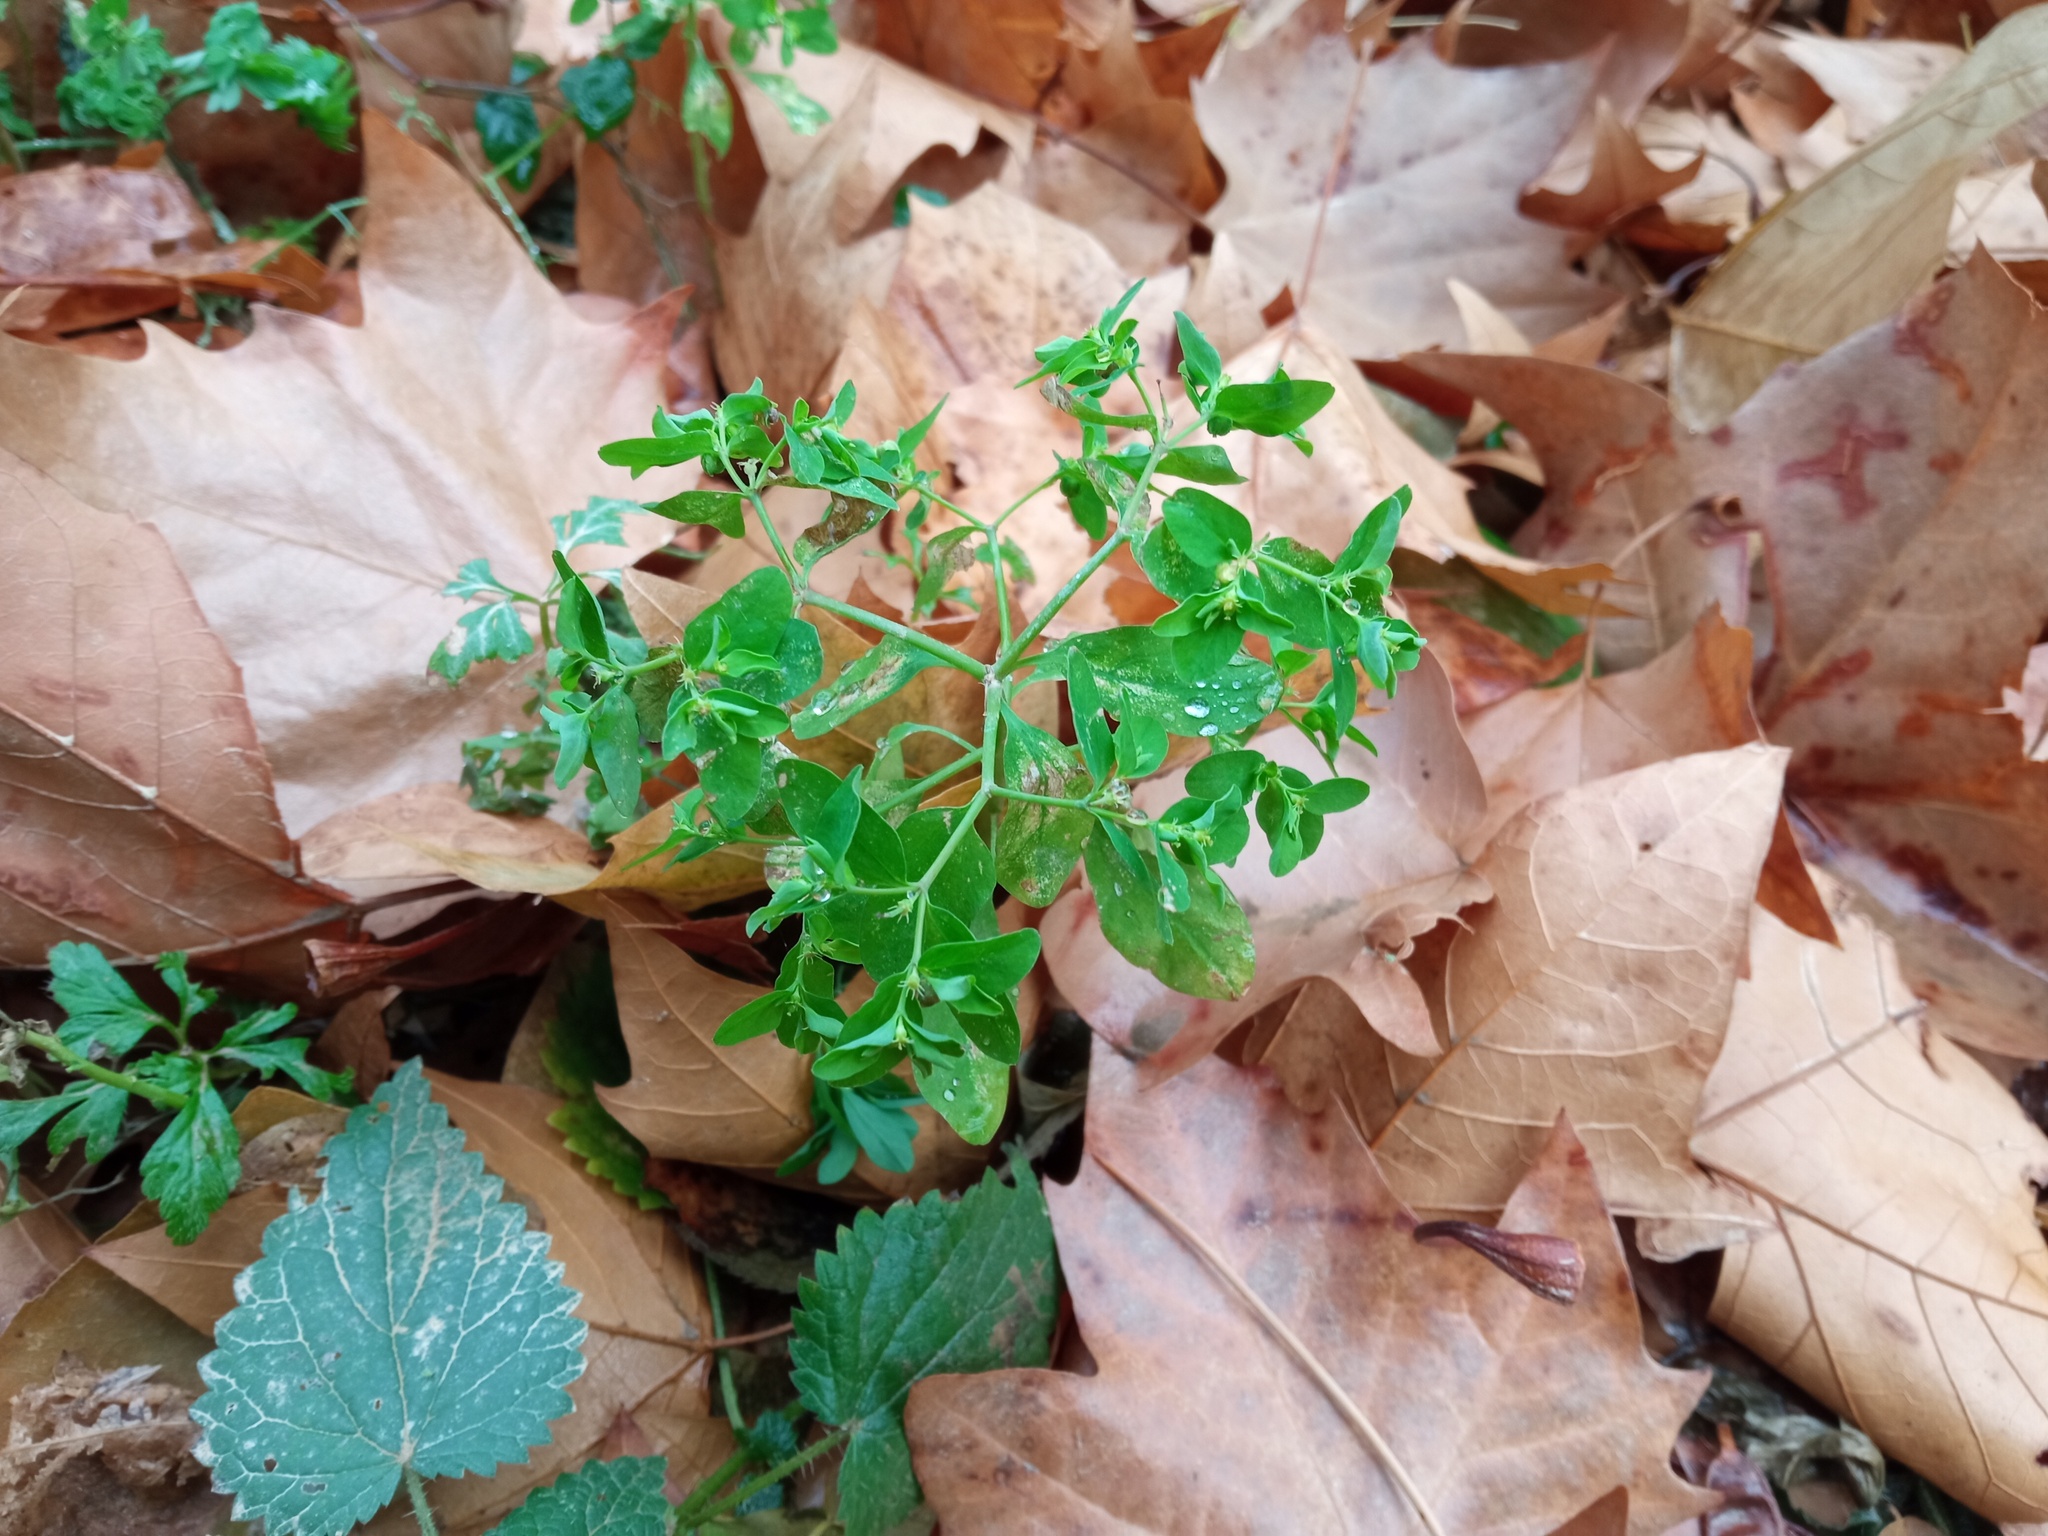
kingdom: Plantae
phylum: Tracheophyta
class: Magnoliopsida
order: Malpighiales
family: Euphorbiaceae
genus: Euphorbia
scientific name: Euphorbia peplus
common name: Petty spurge
